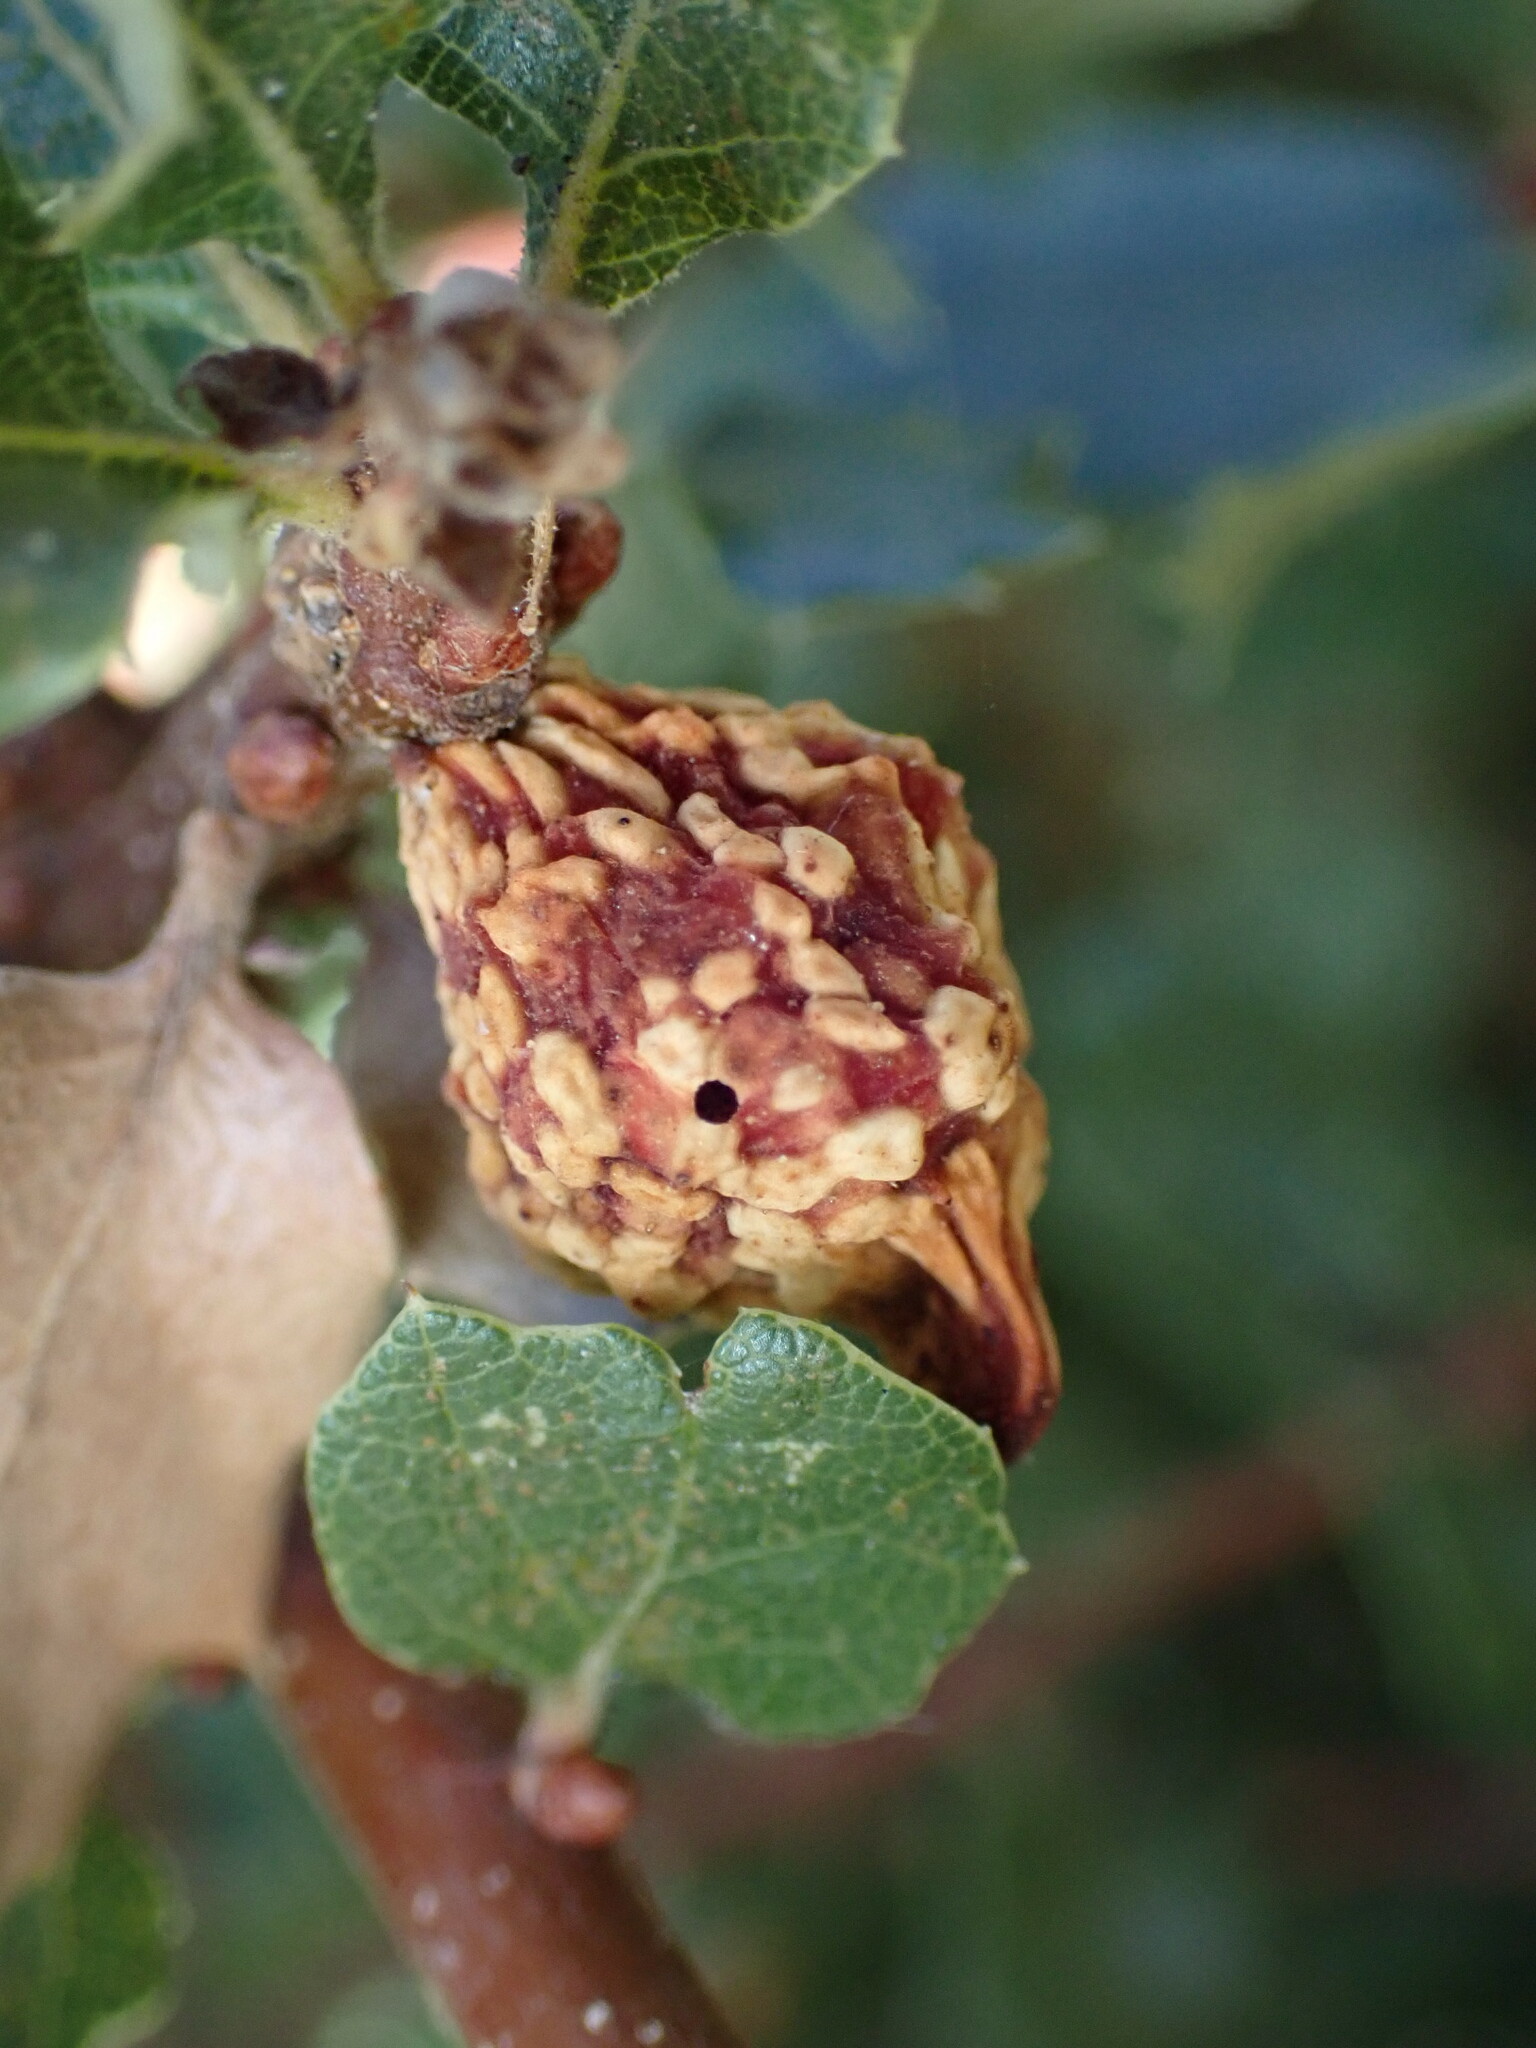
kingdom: Animalia
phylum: Arthropoda
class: Insecta
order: Hymenoptera
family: Cynipidae
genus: Burnettweldia
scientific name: Burnettweldia
